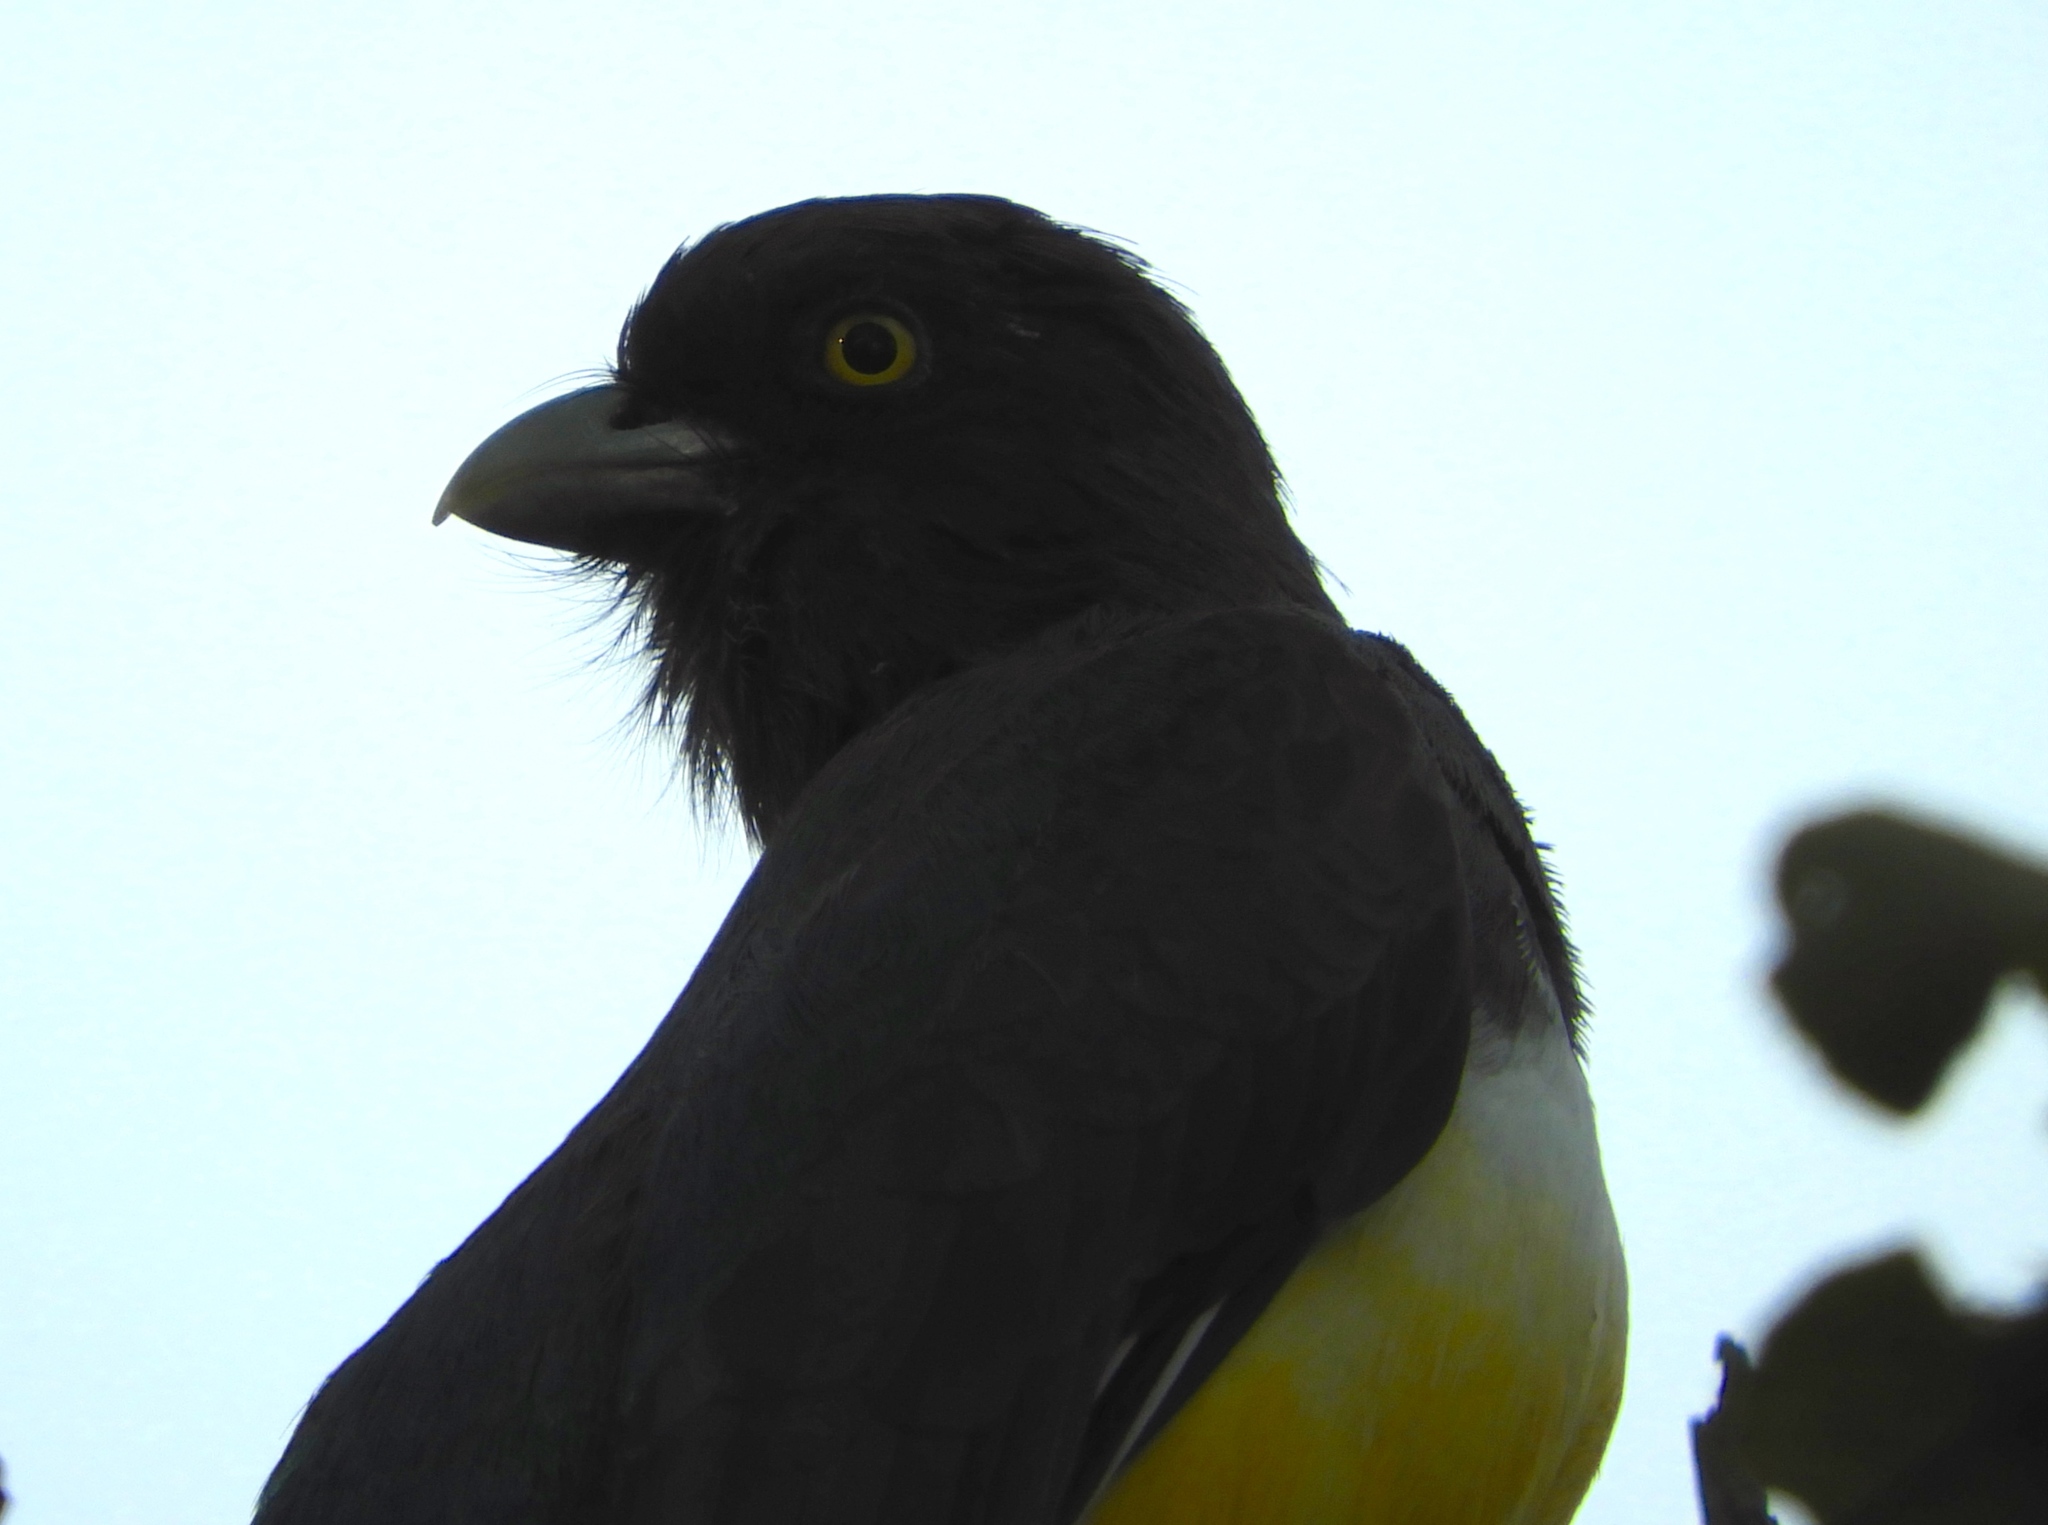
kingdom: Animalia
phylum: Chordata
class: Aves
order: Trogoniformes
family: Trogonidae
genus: Trogon
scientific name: Trogon citreolus
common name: Citreoline trogon
